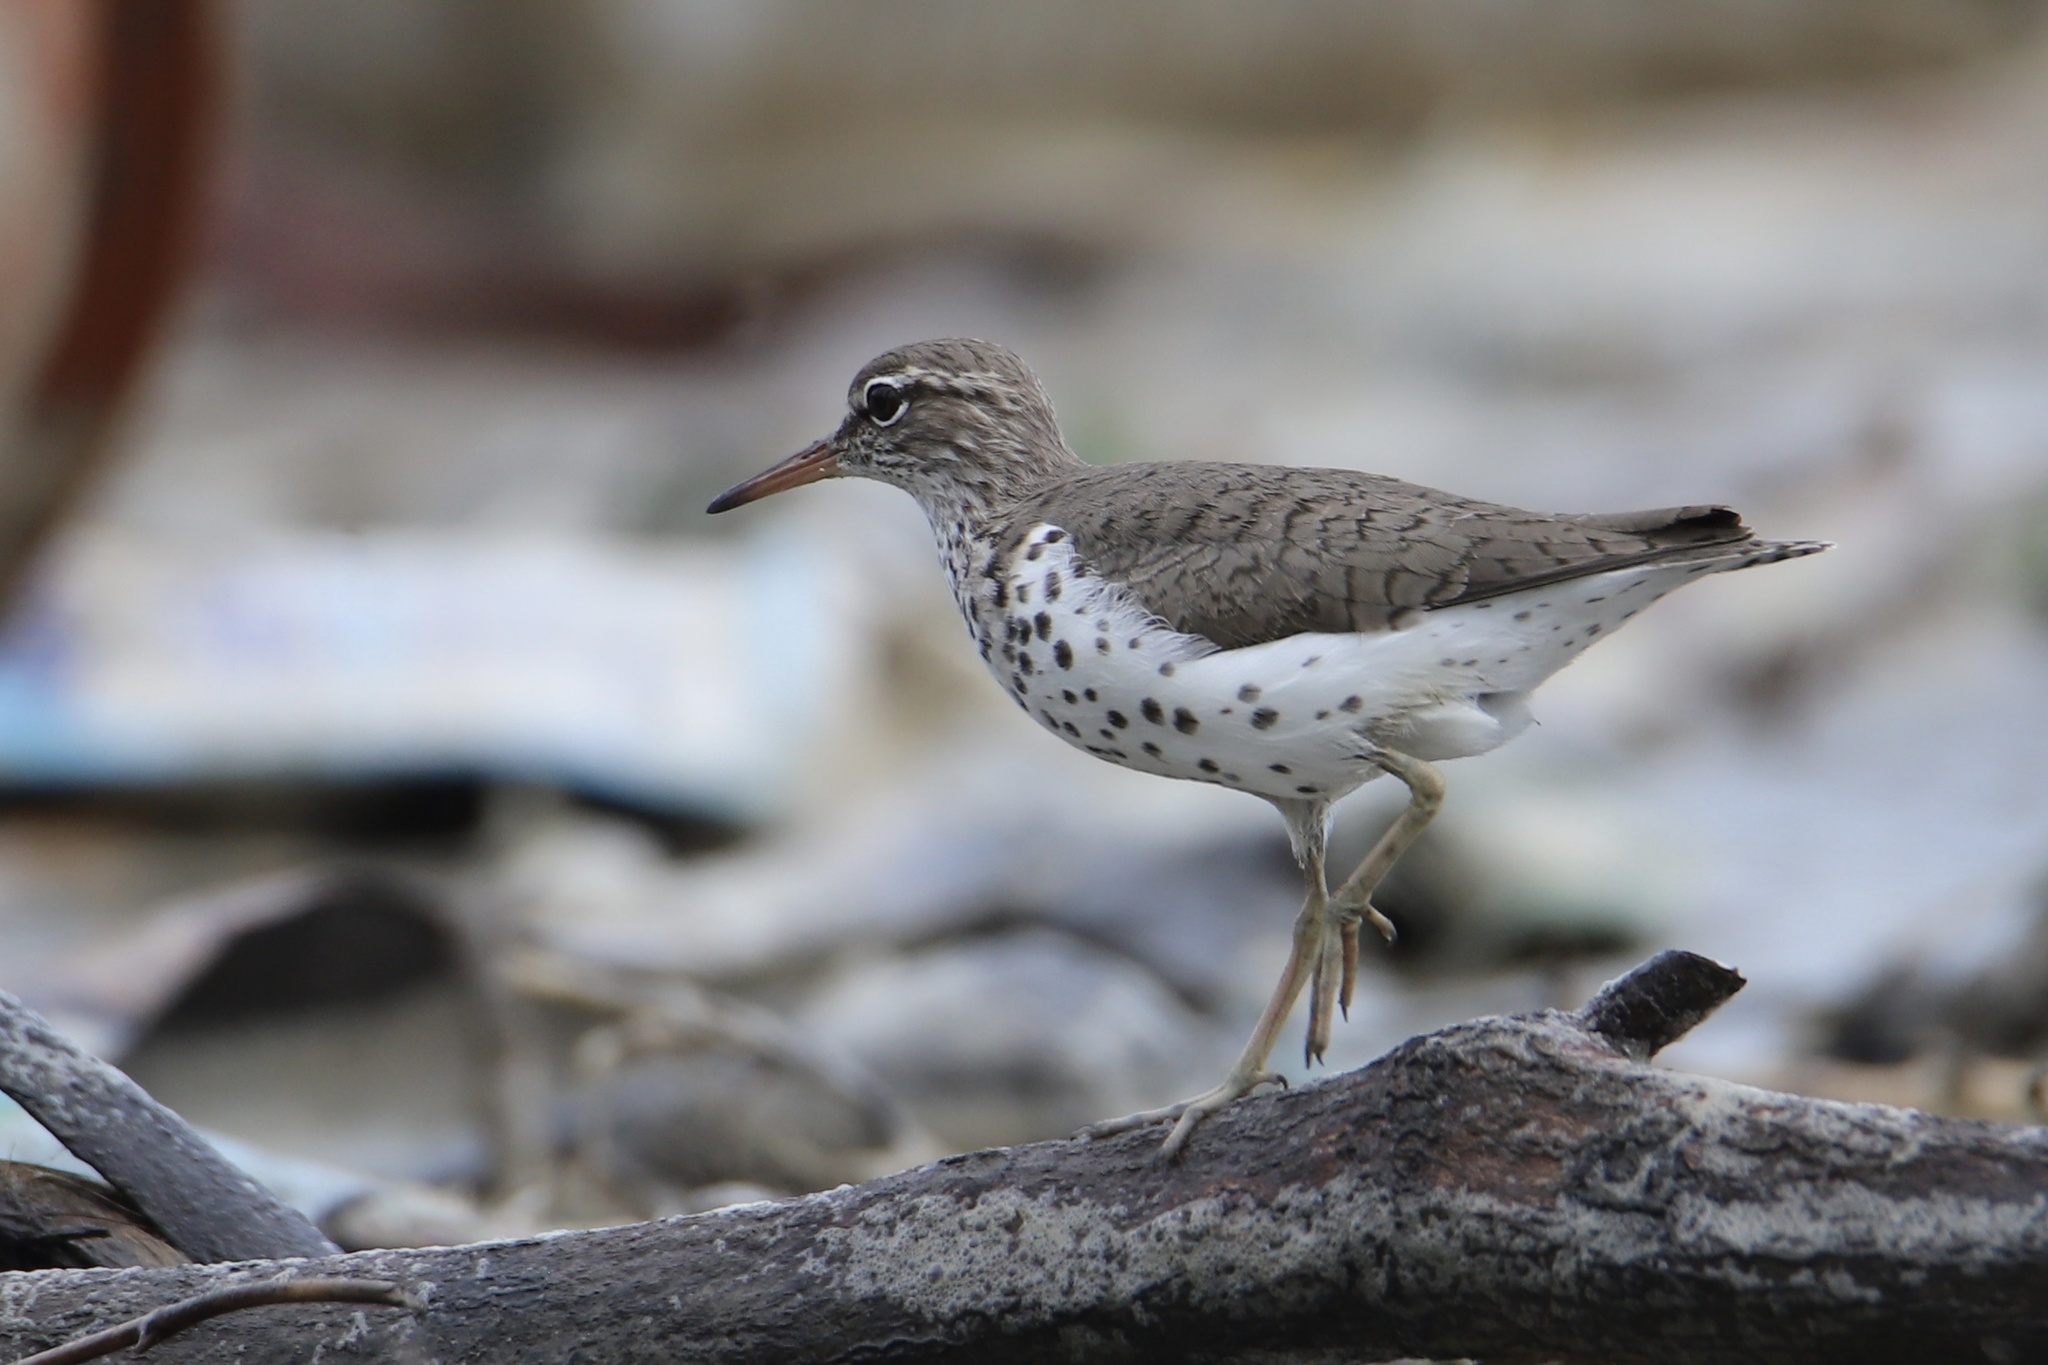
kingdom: Animalia
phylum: Chordata
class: Aves
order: Charadriiformes
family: Scolopacidae
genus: Actitis
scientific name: Actitis macularius
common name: Spotted sandpiper
